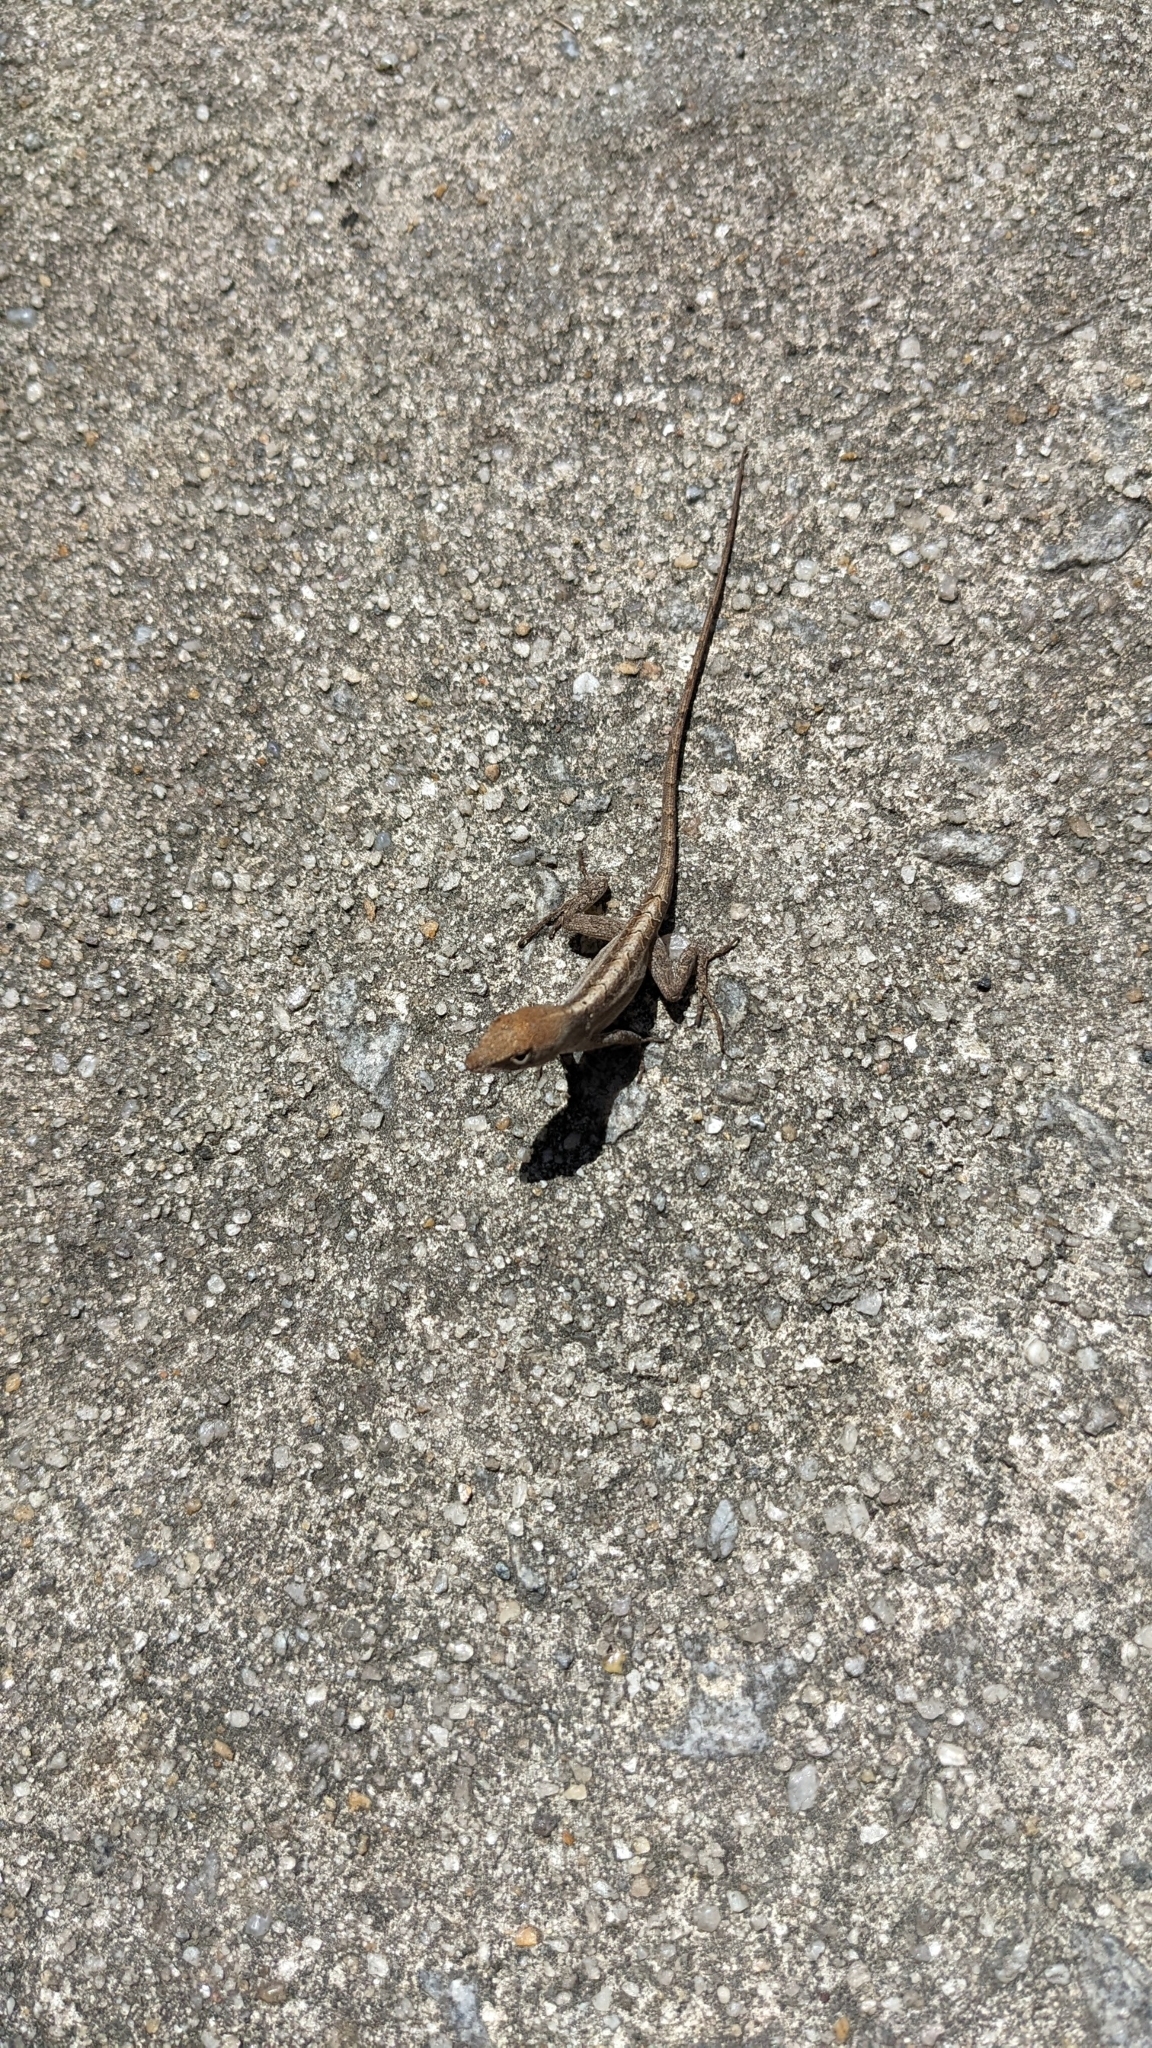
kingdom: Animalia
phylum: Chordata
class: Squamata
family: Dactyloidae
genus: Anolis
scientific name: Anolis sagrei
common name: Brown anole
